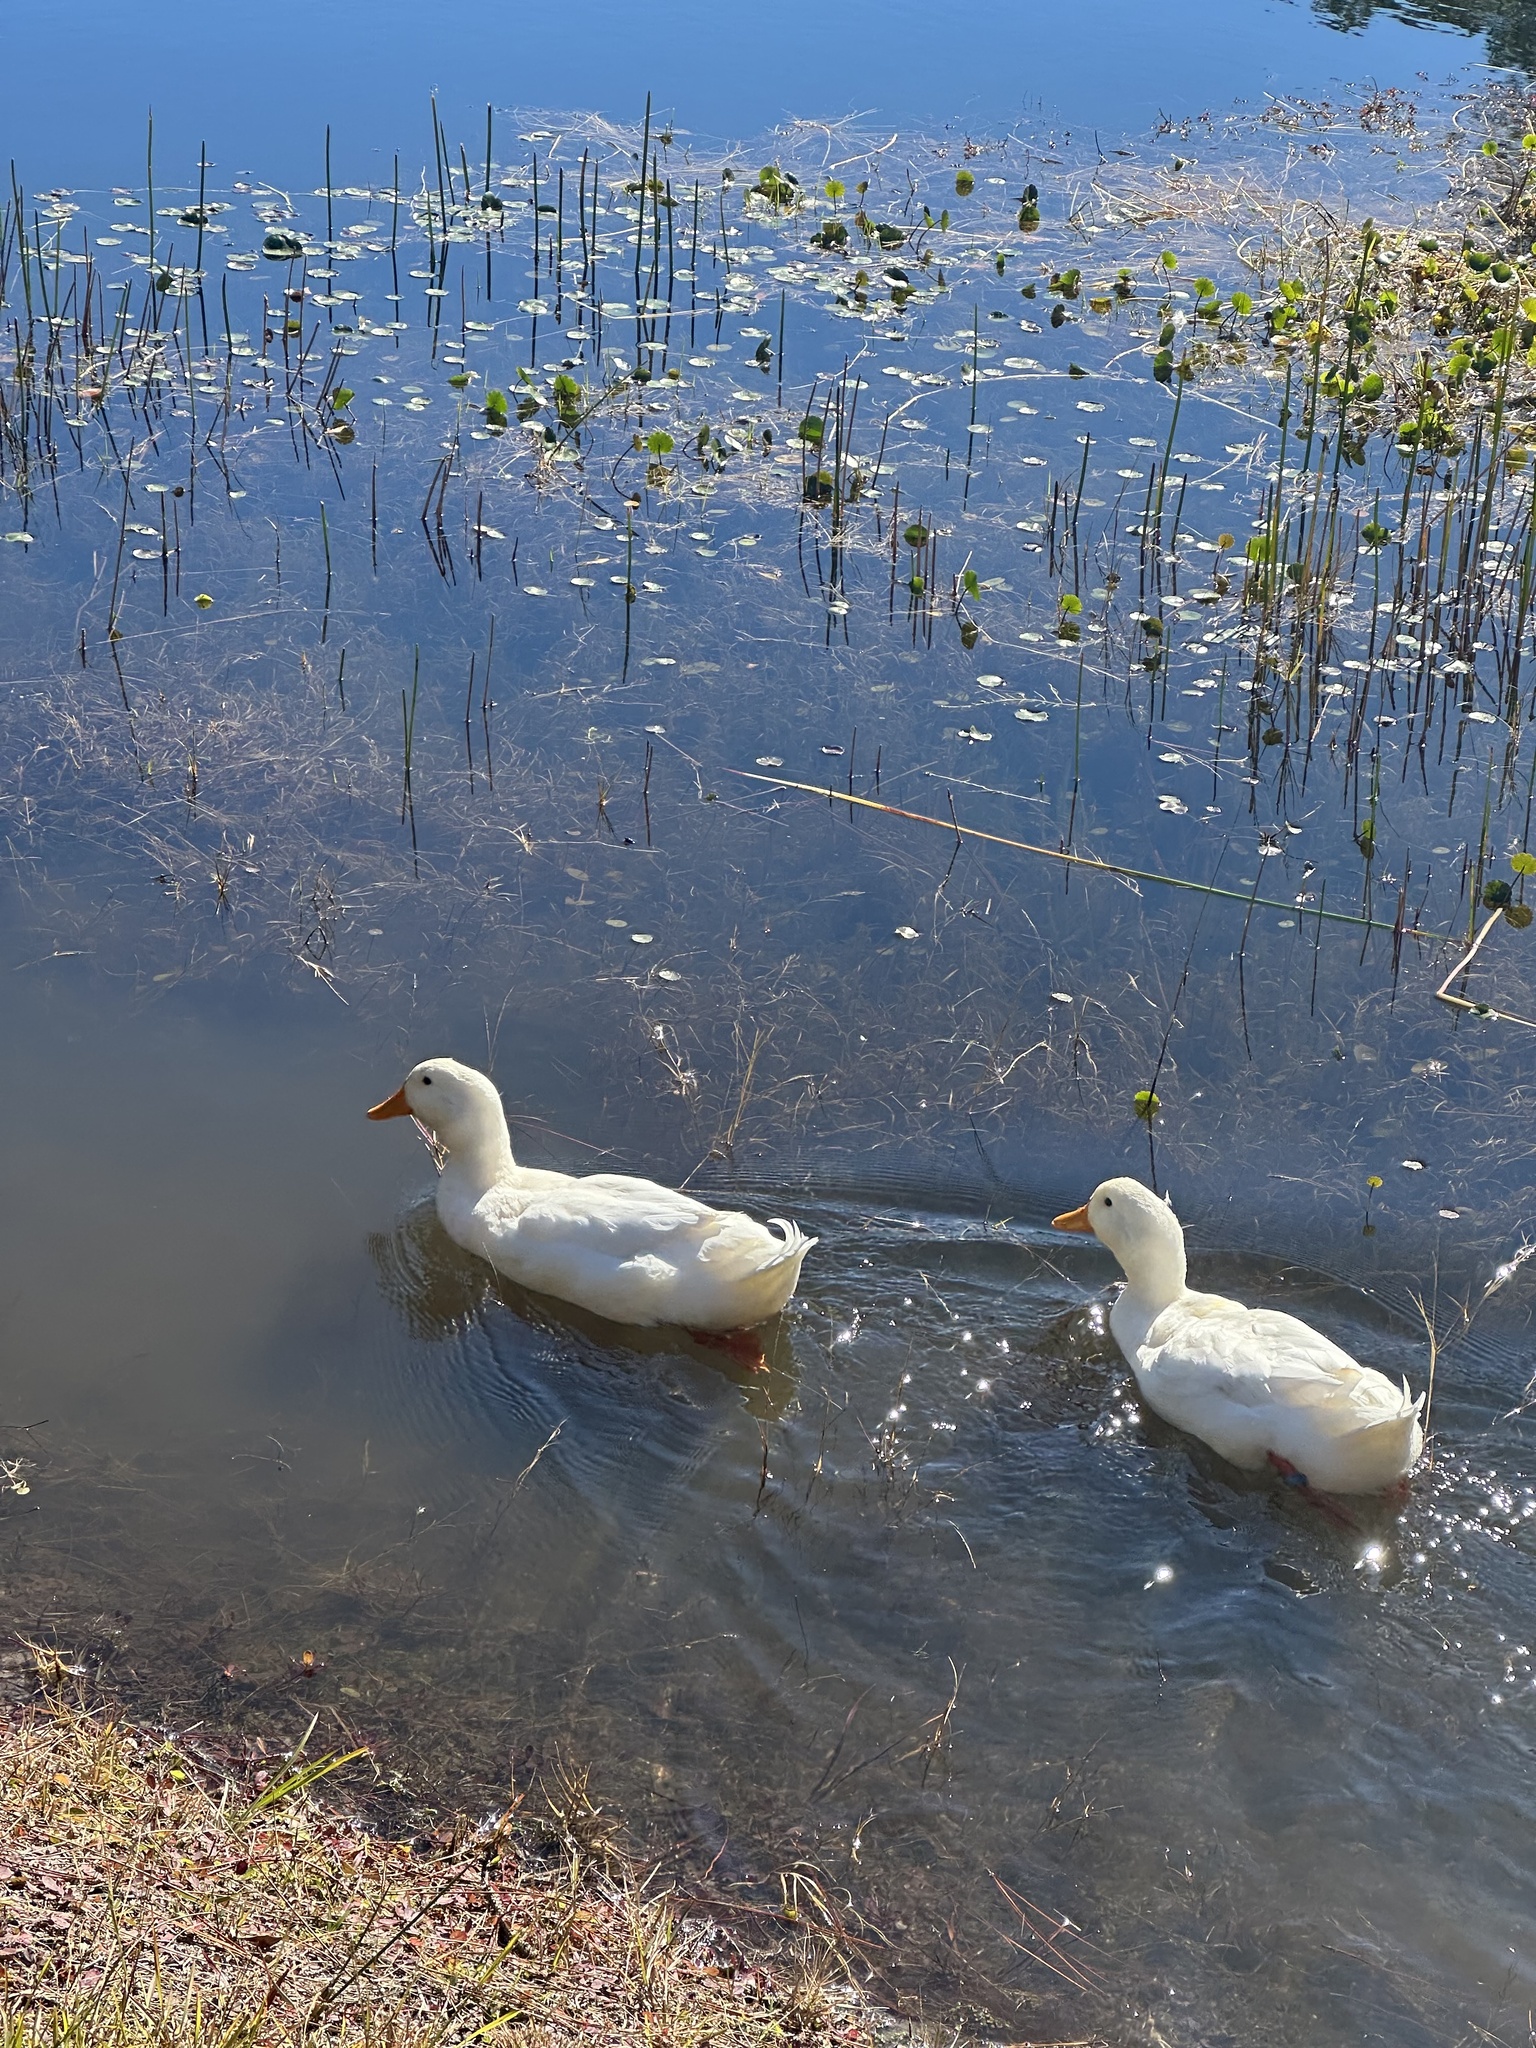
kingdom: Animalia
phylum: Chordata
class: Aves
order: Anseriformes
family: Anatidae
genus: Anas
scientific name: Anas platyrhynchos
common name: Mallard
